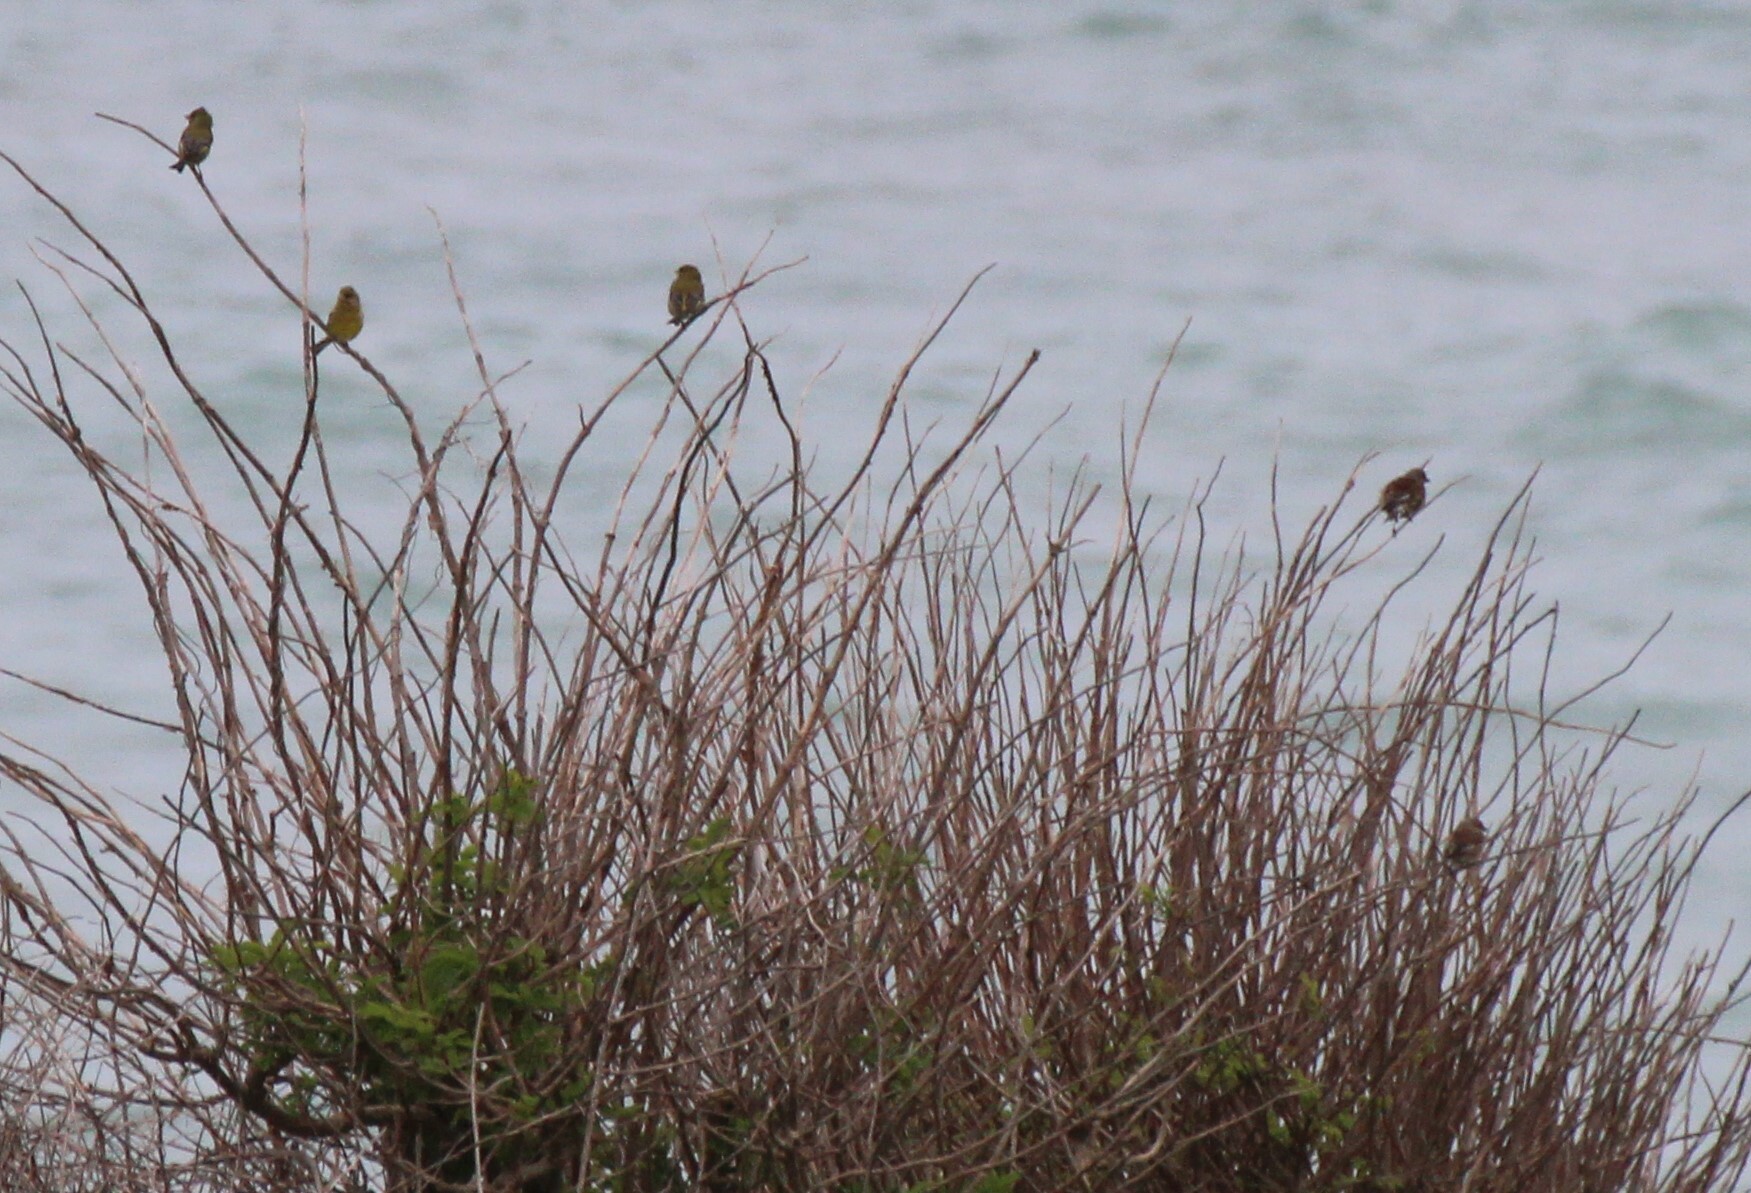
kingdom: Plantae
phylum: Tracheophyta
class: Liliopsida
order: Poales
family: Poaceae
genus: Chloris
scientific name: Chloris chloris
